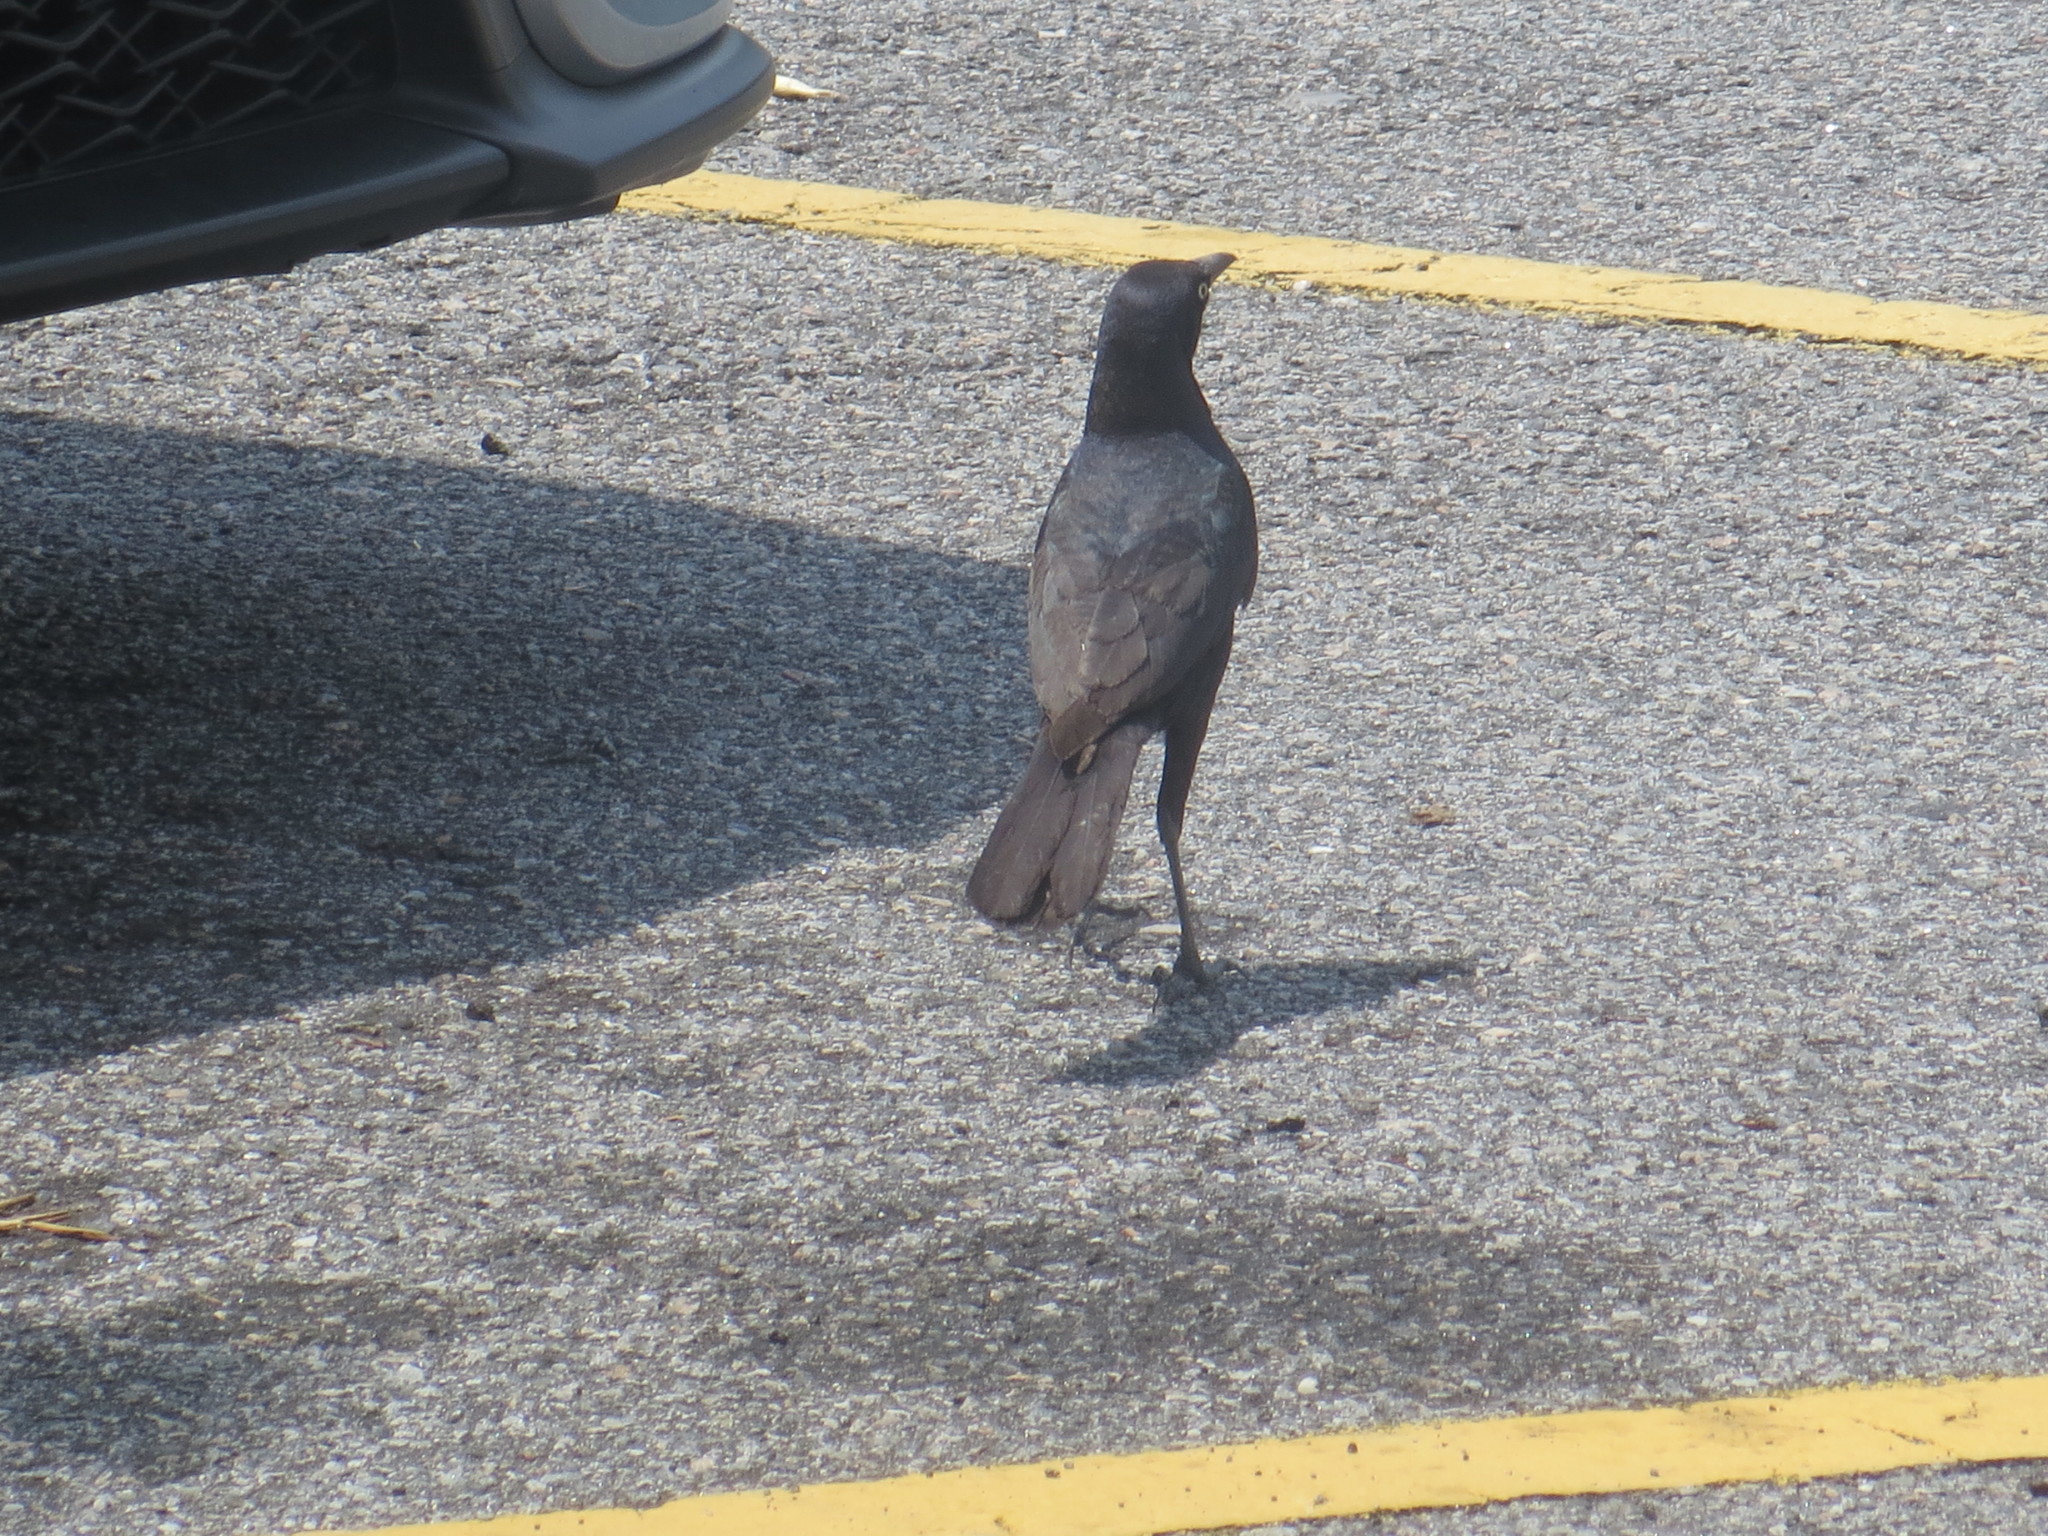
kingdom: Animalia
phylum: Chordata
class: Aves
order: Passeriformes
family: Icteridae
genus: Quiscalus
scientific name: Quiscalus major
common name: Boat-tailed grackle
